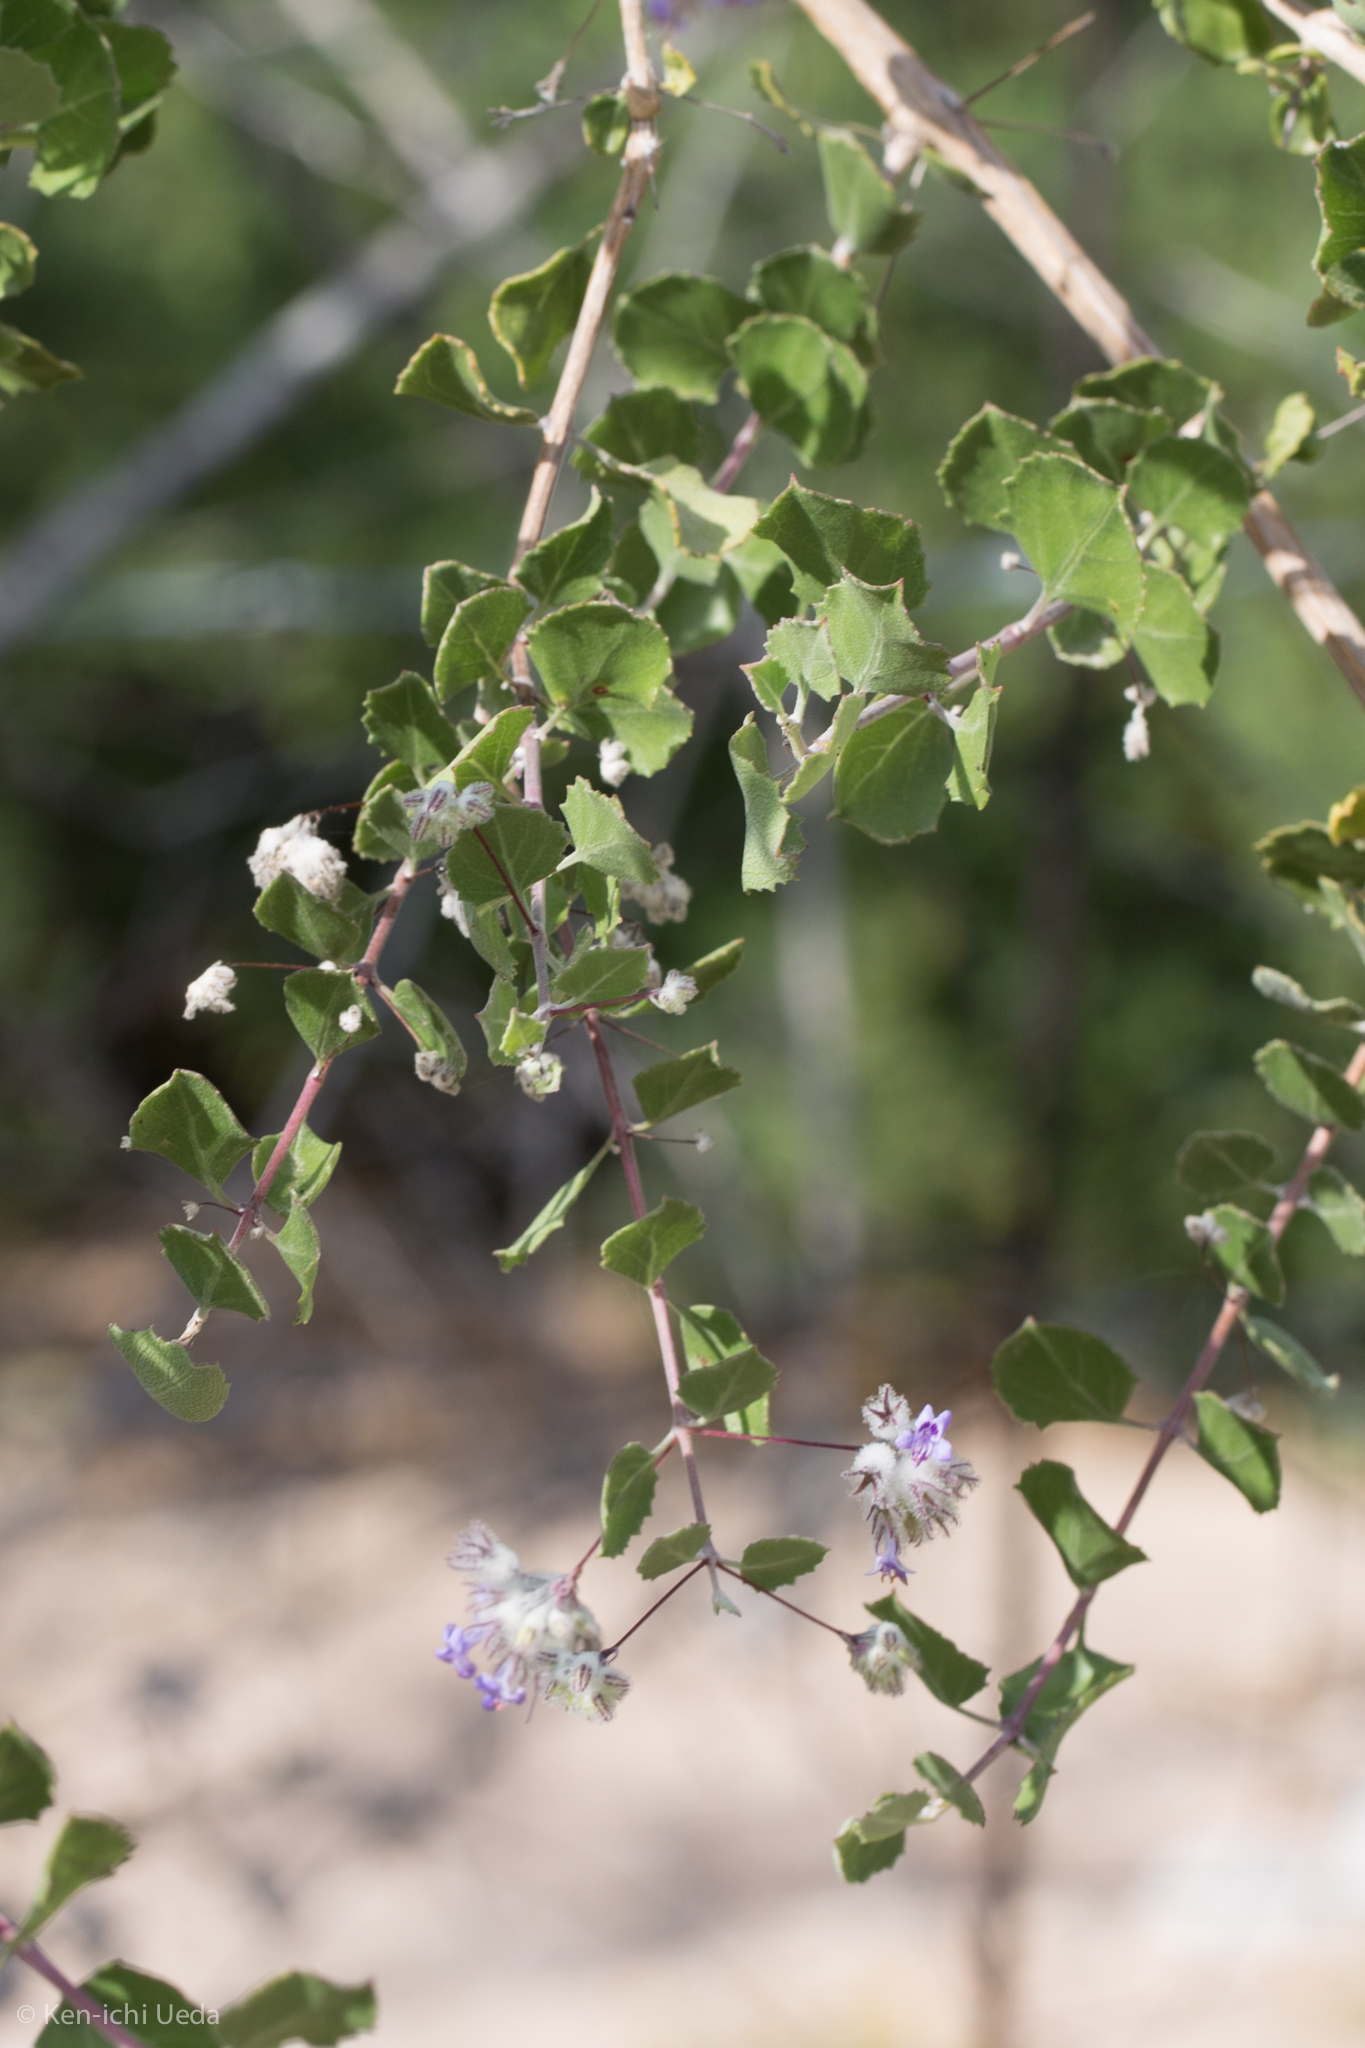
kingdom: Plantae
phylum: Tracheophyta
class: Magnoliopsida
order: Lamiales
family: Lamiaceae
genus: Condea
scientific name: Condea laniflora
